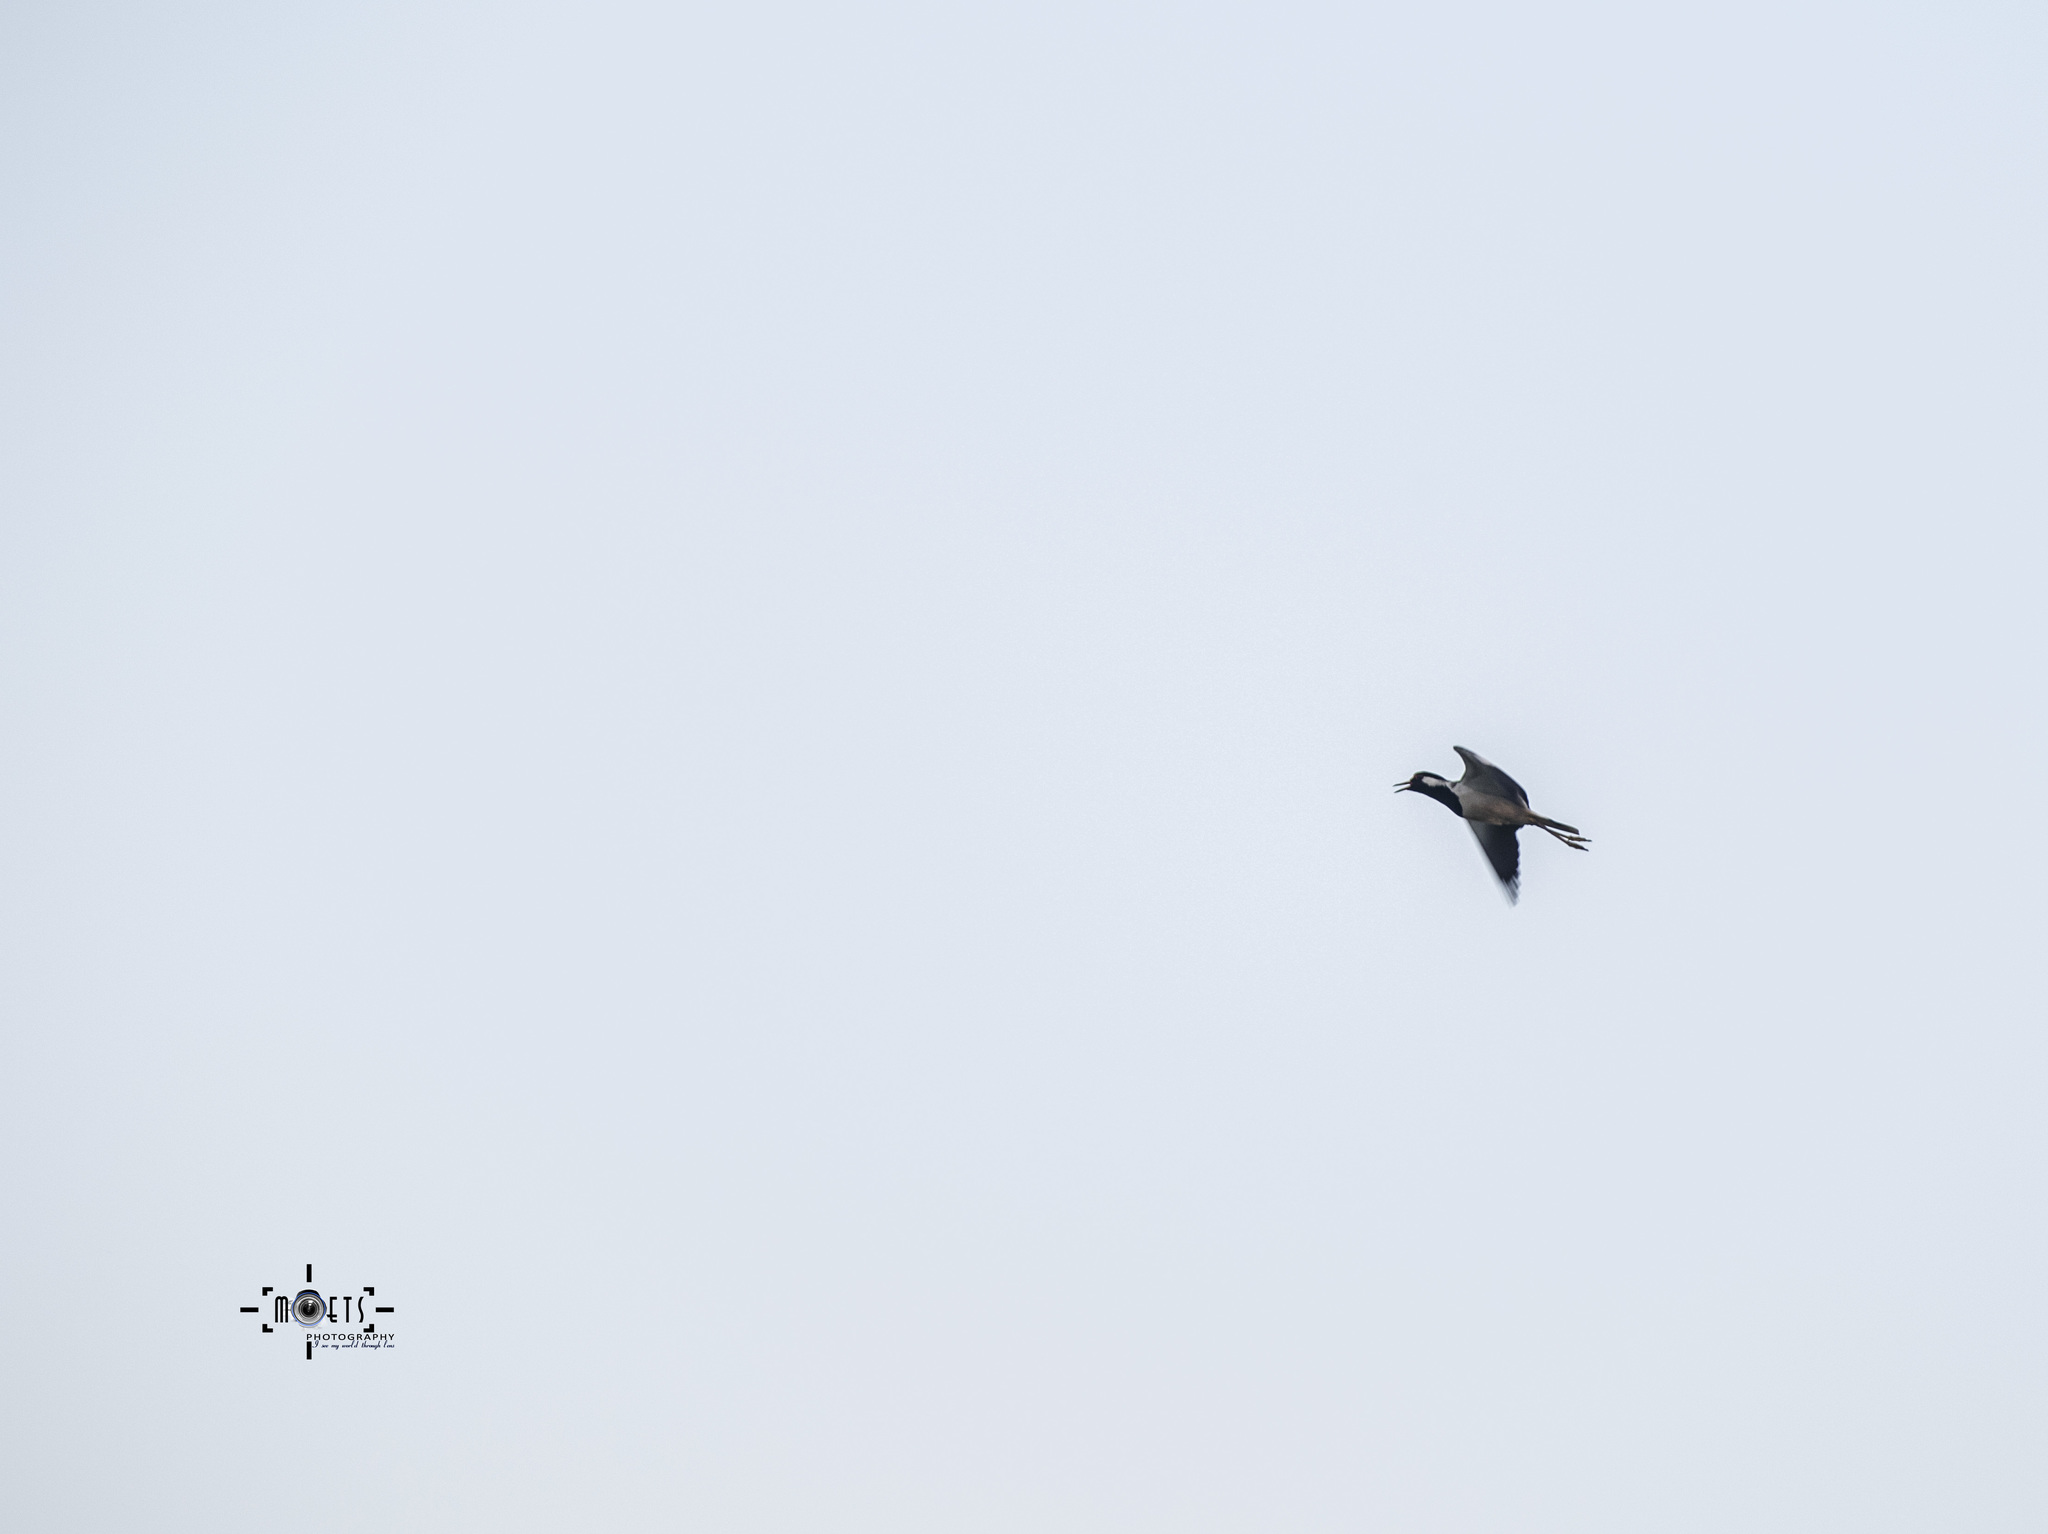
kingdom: Animalia
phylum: Chordata
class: Aves
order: Charadriiformes
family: Charadriidae
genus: Vanellus
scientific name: Vanellus indicus
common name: Red-wattled lapwing
